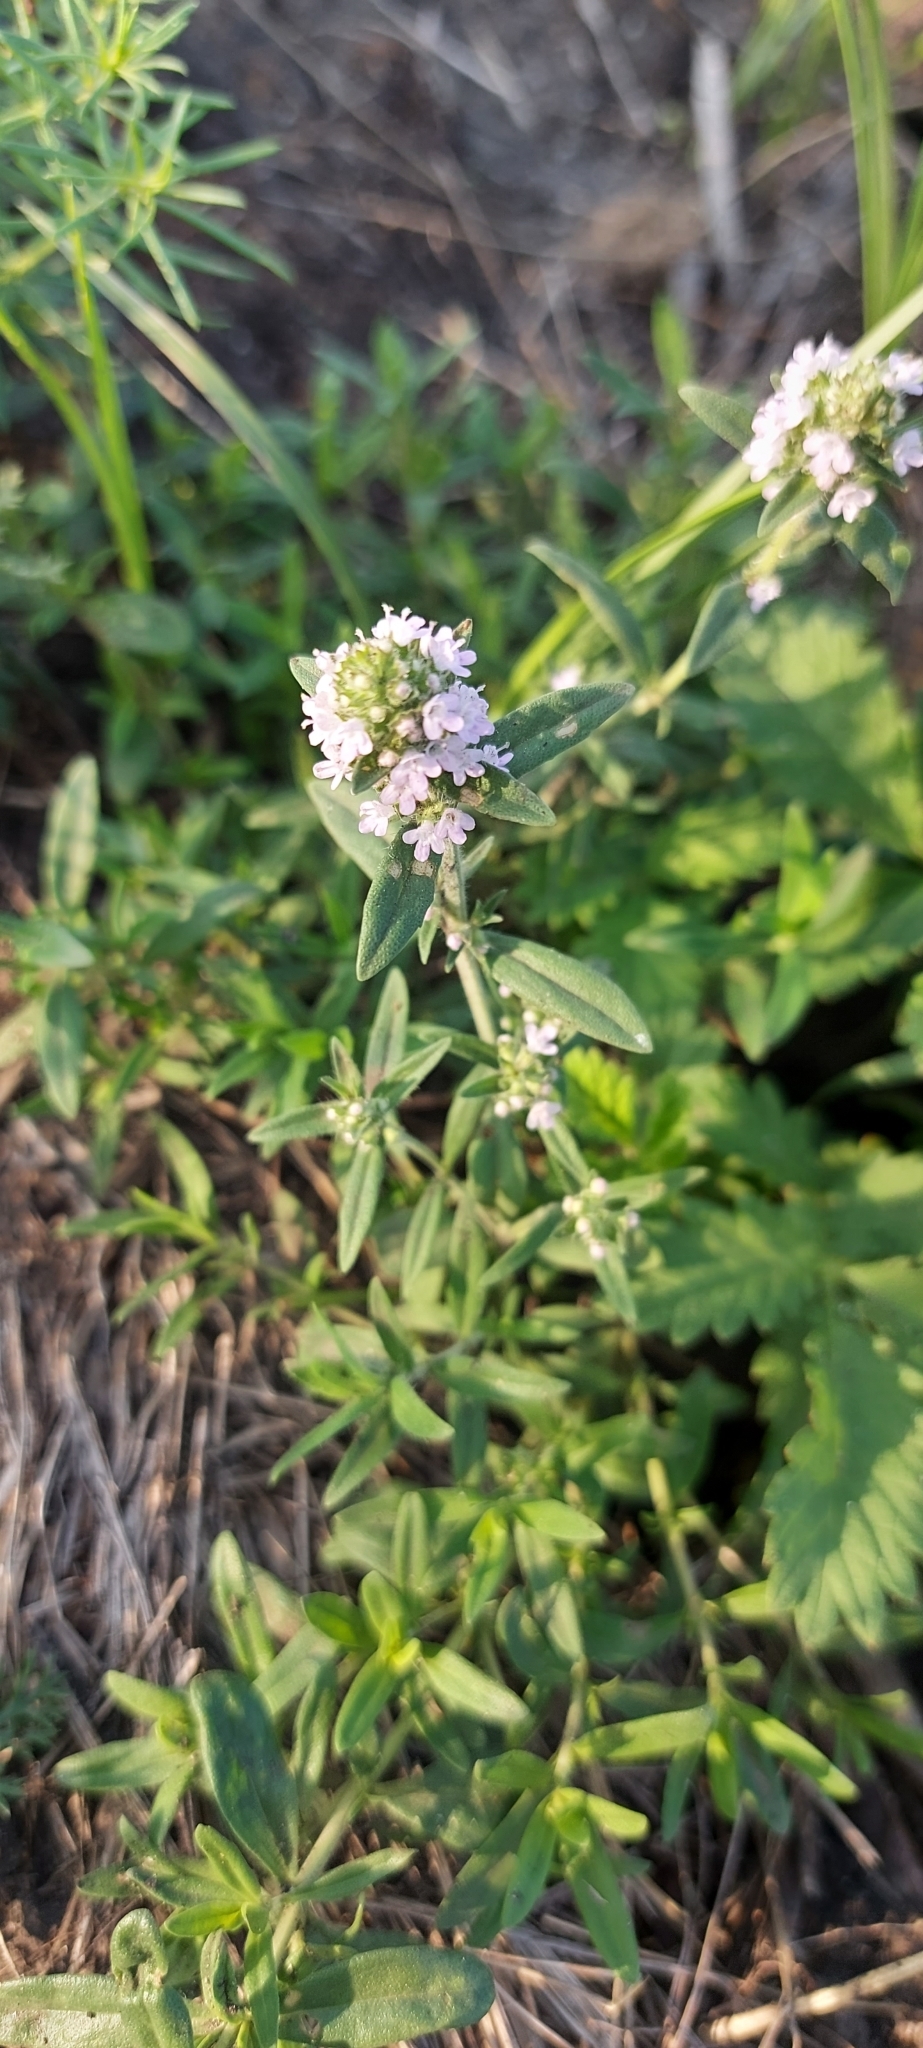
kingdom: Plantae
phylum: Tracheophyta
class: Magnoliopsida
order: Lamiales
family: Lamiaceae
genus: Thymus
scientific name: Thymus pannonicus
